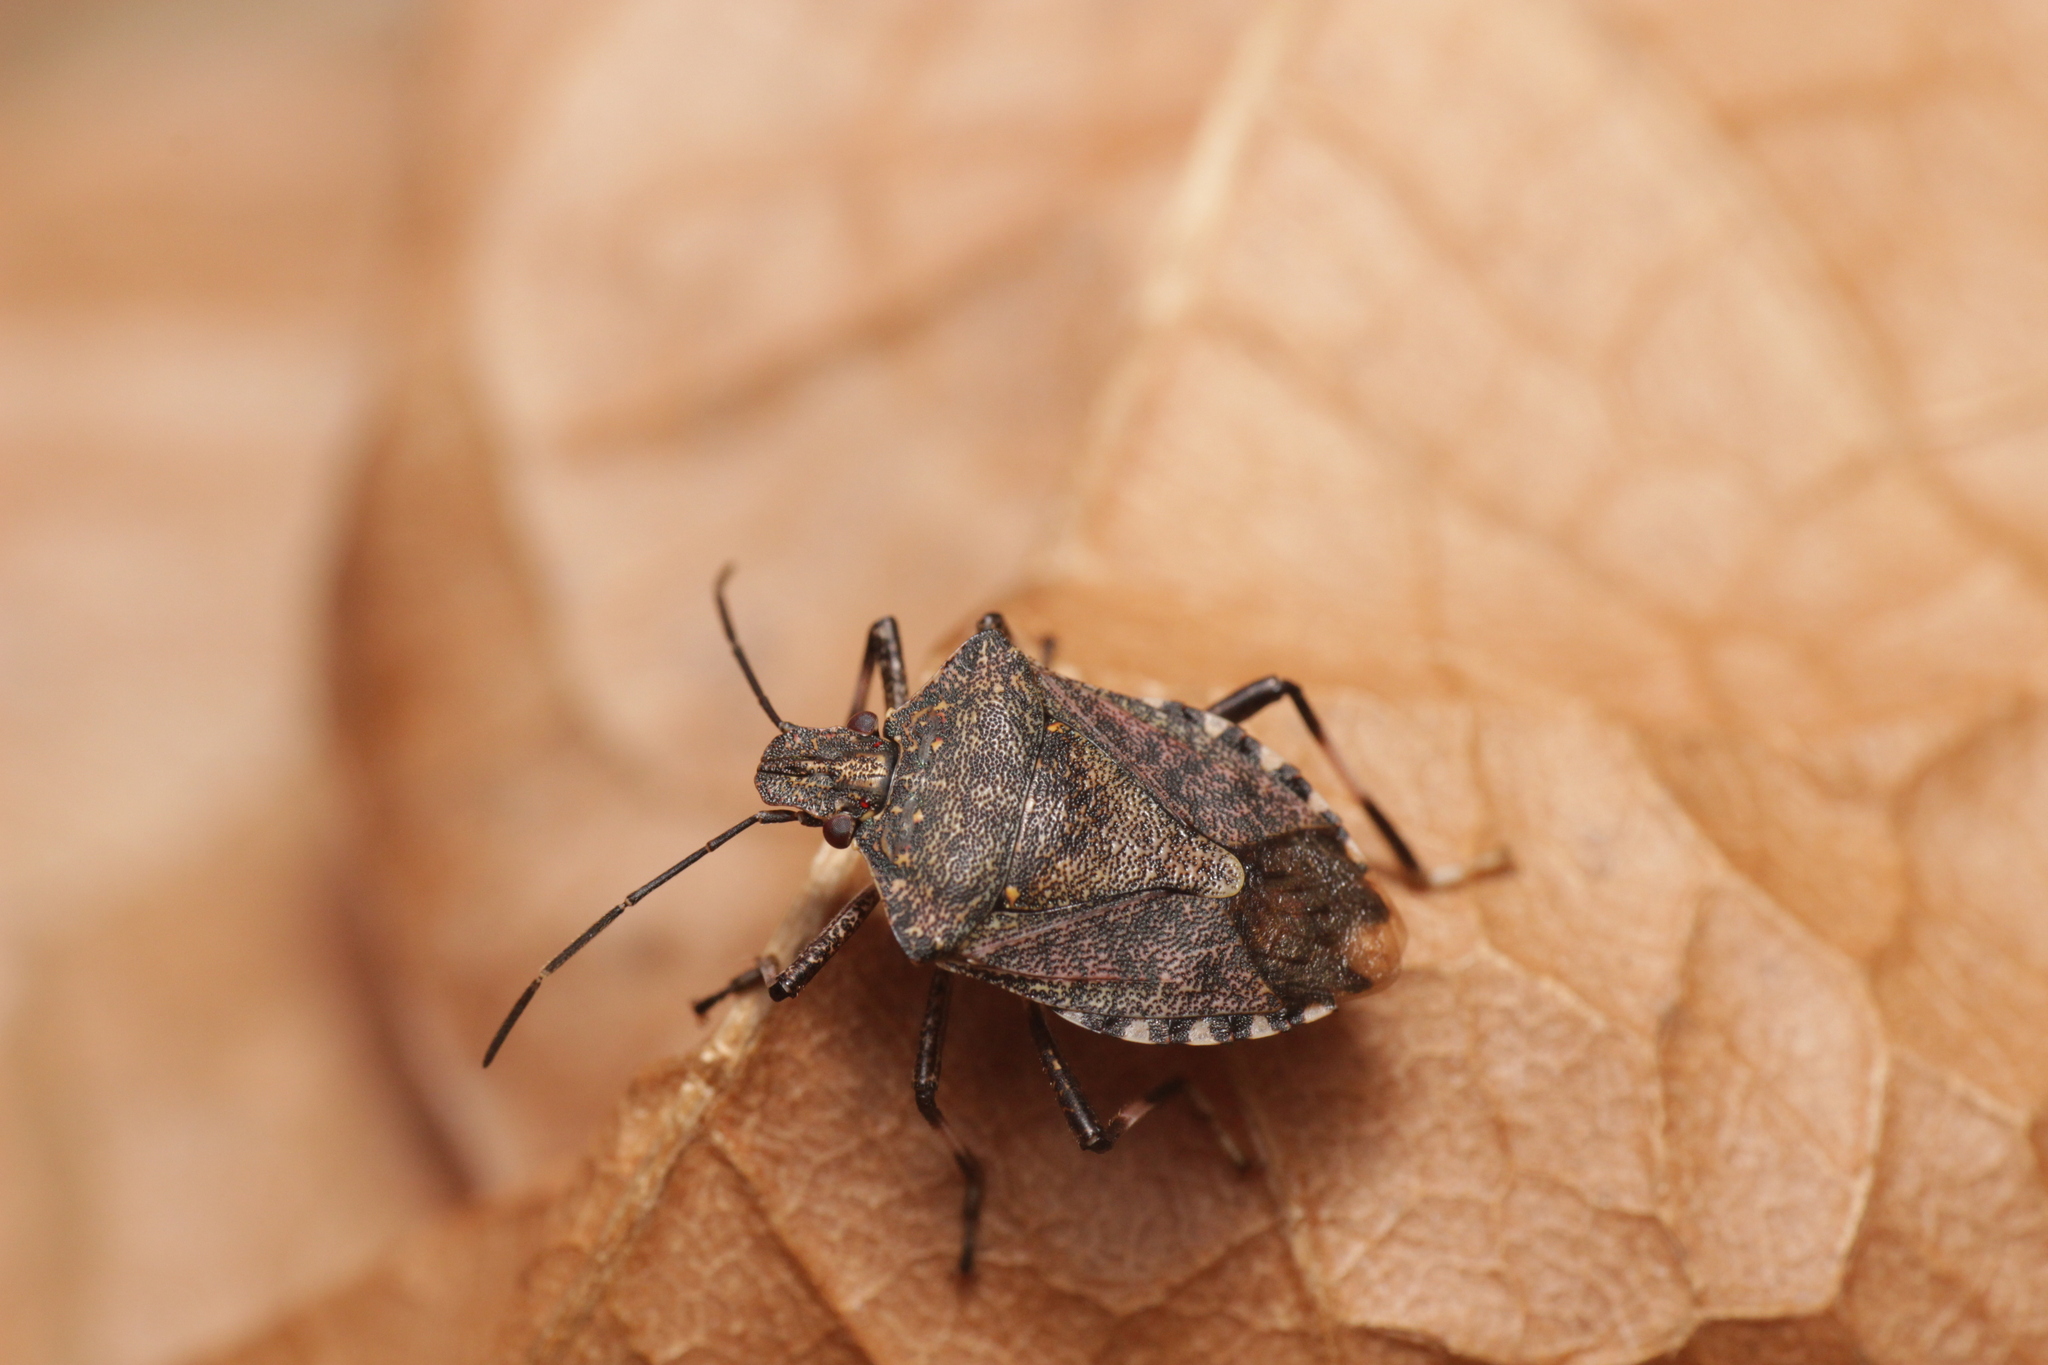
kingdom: Animalia
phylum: Arthropoda
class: Insecta
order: Hemiptera
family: Pentatomidae
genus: Halyomorpha
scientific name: Halyomorpha halys
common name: Brown marmorated stink bug
